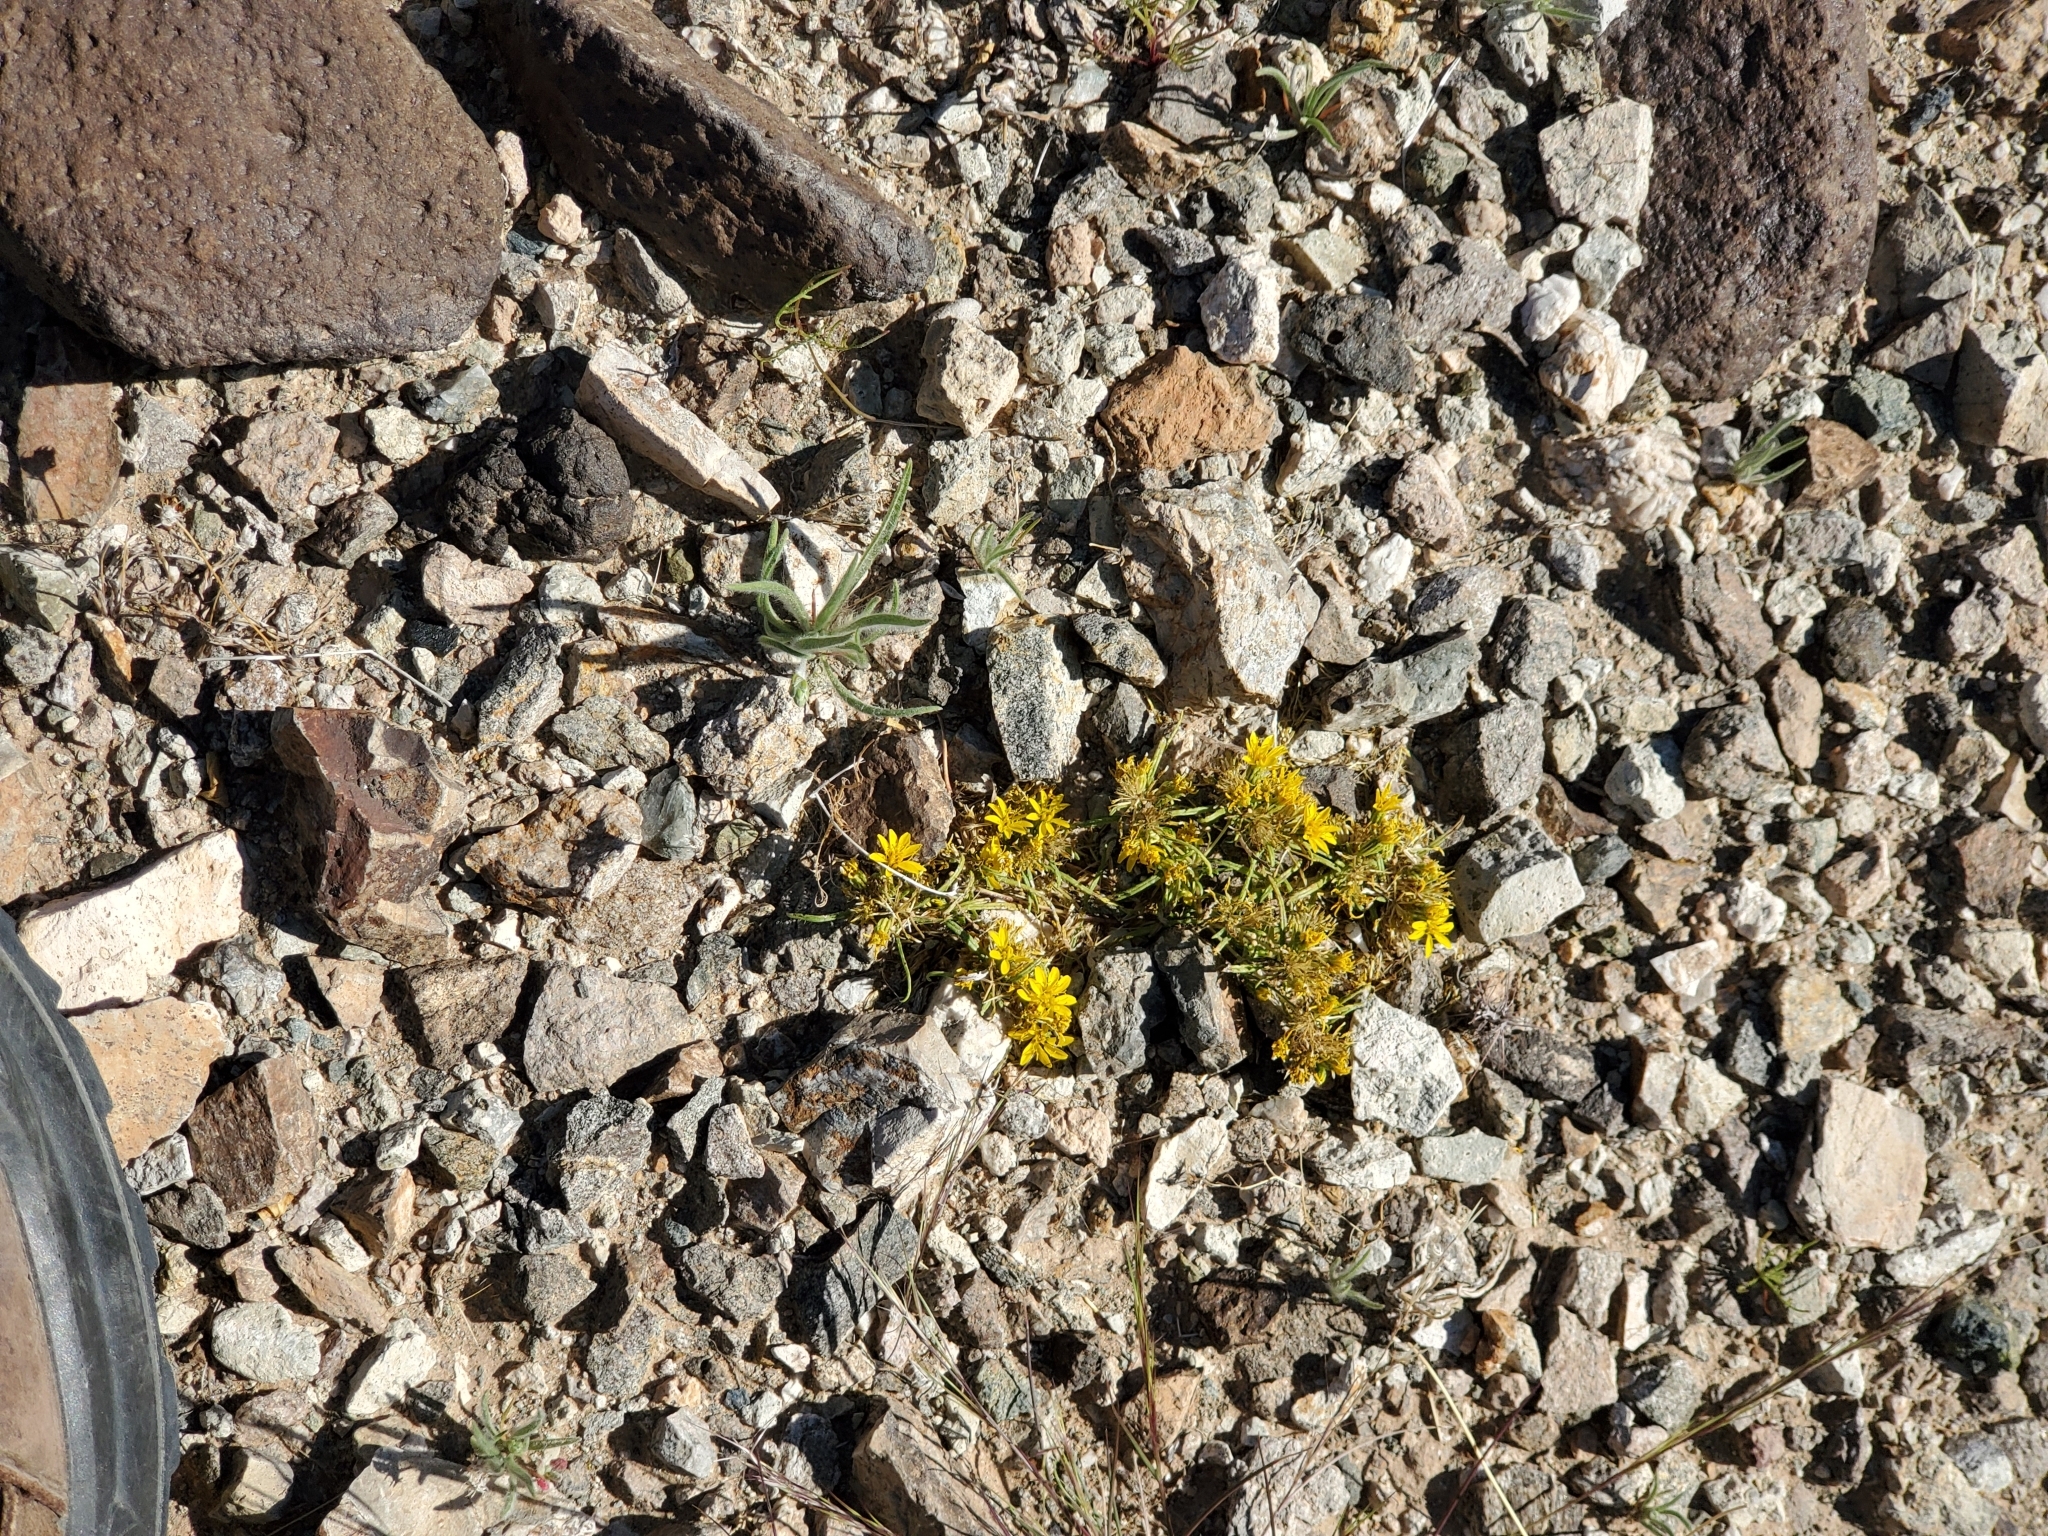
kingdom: Plantae
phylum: Tracheophyta
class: Magnoliopsida
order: Asterales
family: Asteraceae
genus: Pectis
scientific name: Pectis papposa
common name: Many-bristle chinchweed
